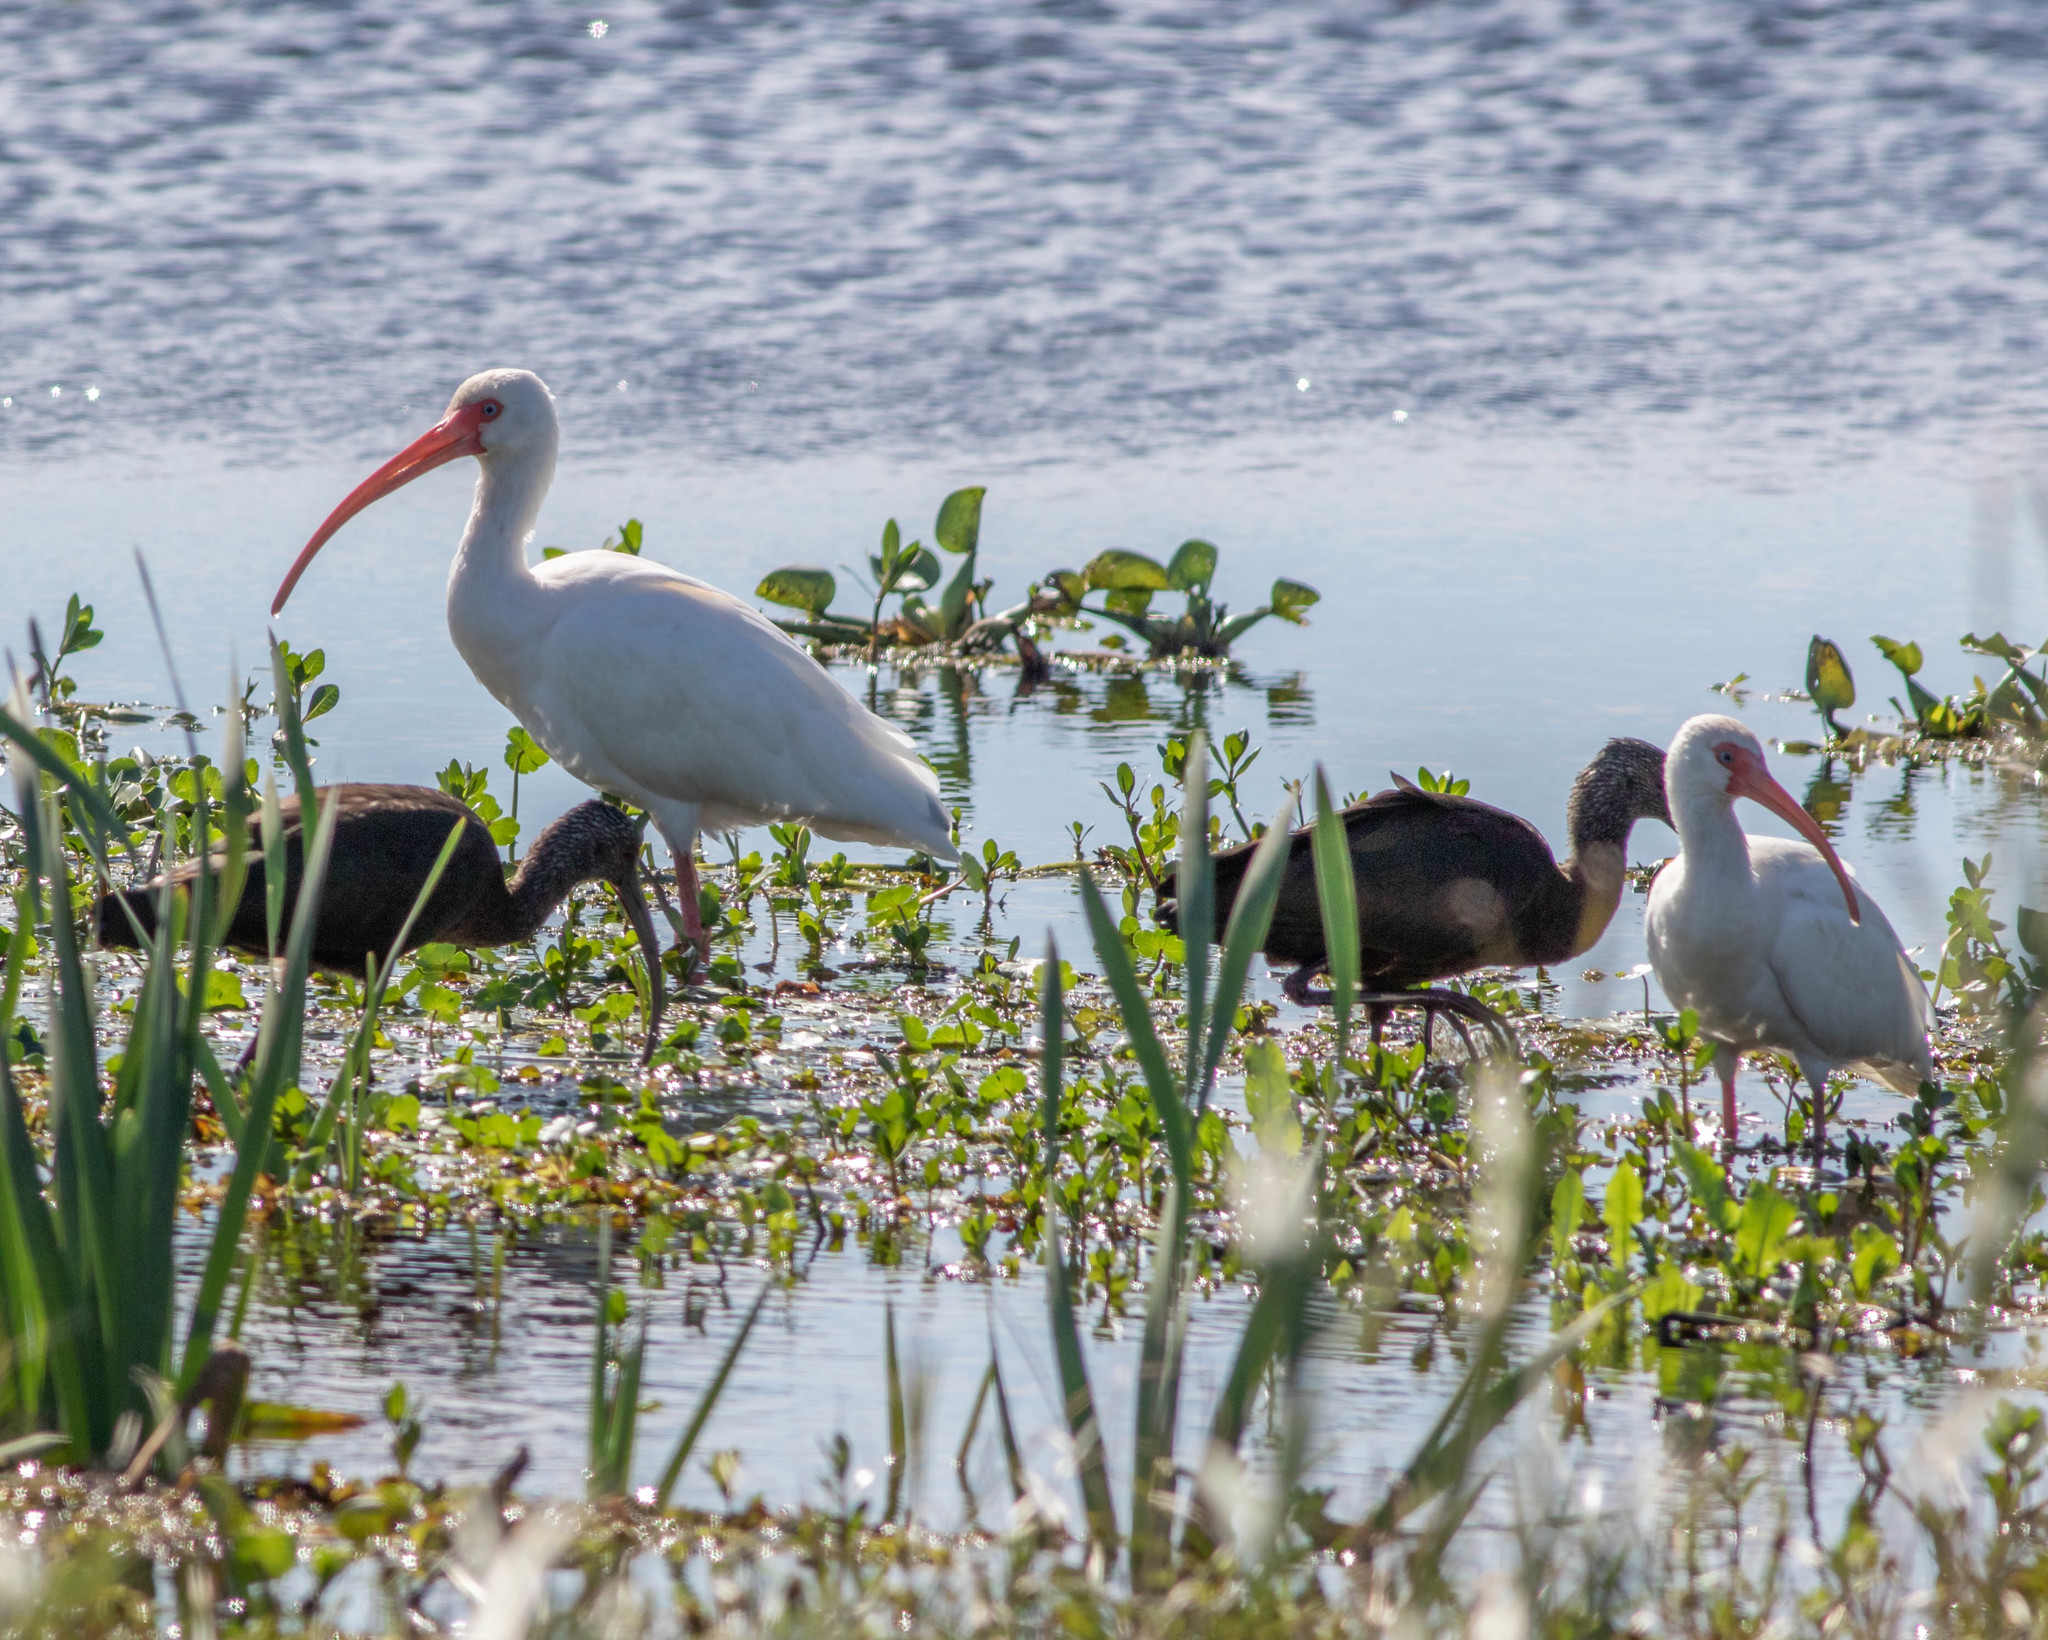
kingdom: Animalia
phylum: Chordata
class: Aves
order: Pelecaniformes
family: Threskiornithidae
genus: Eudocimus
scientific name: Eudocimus albus
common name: White ibis
